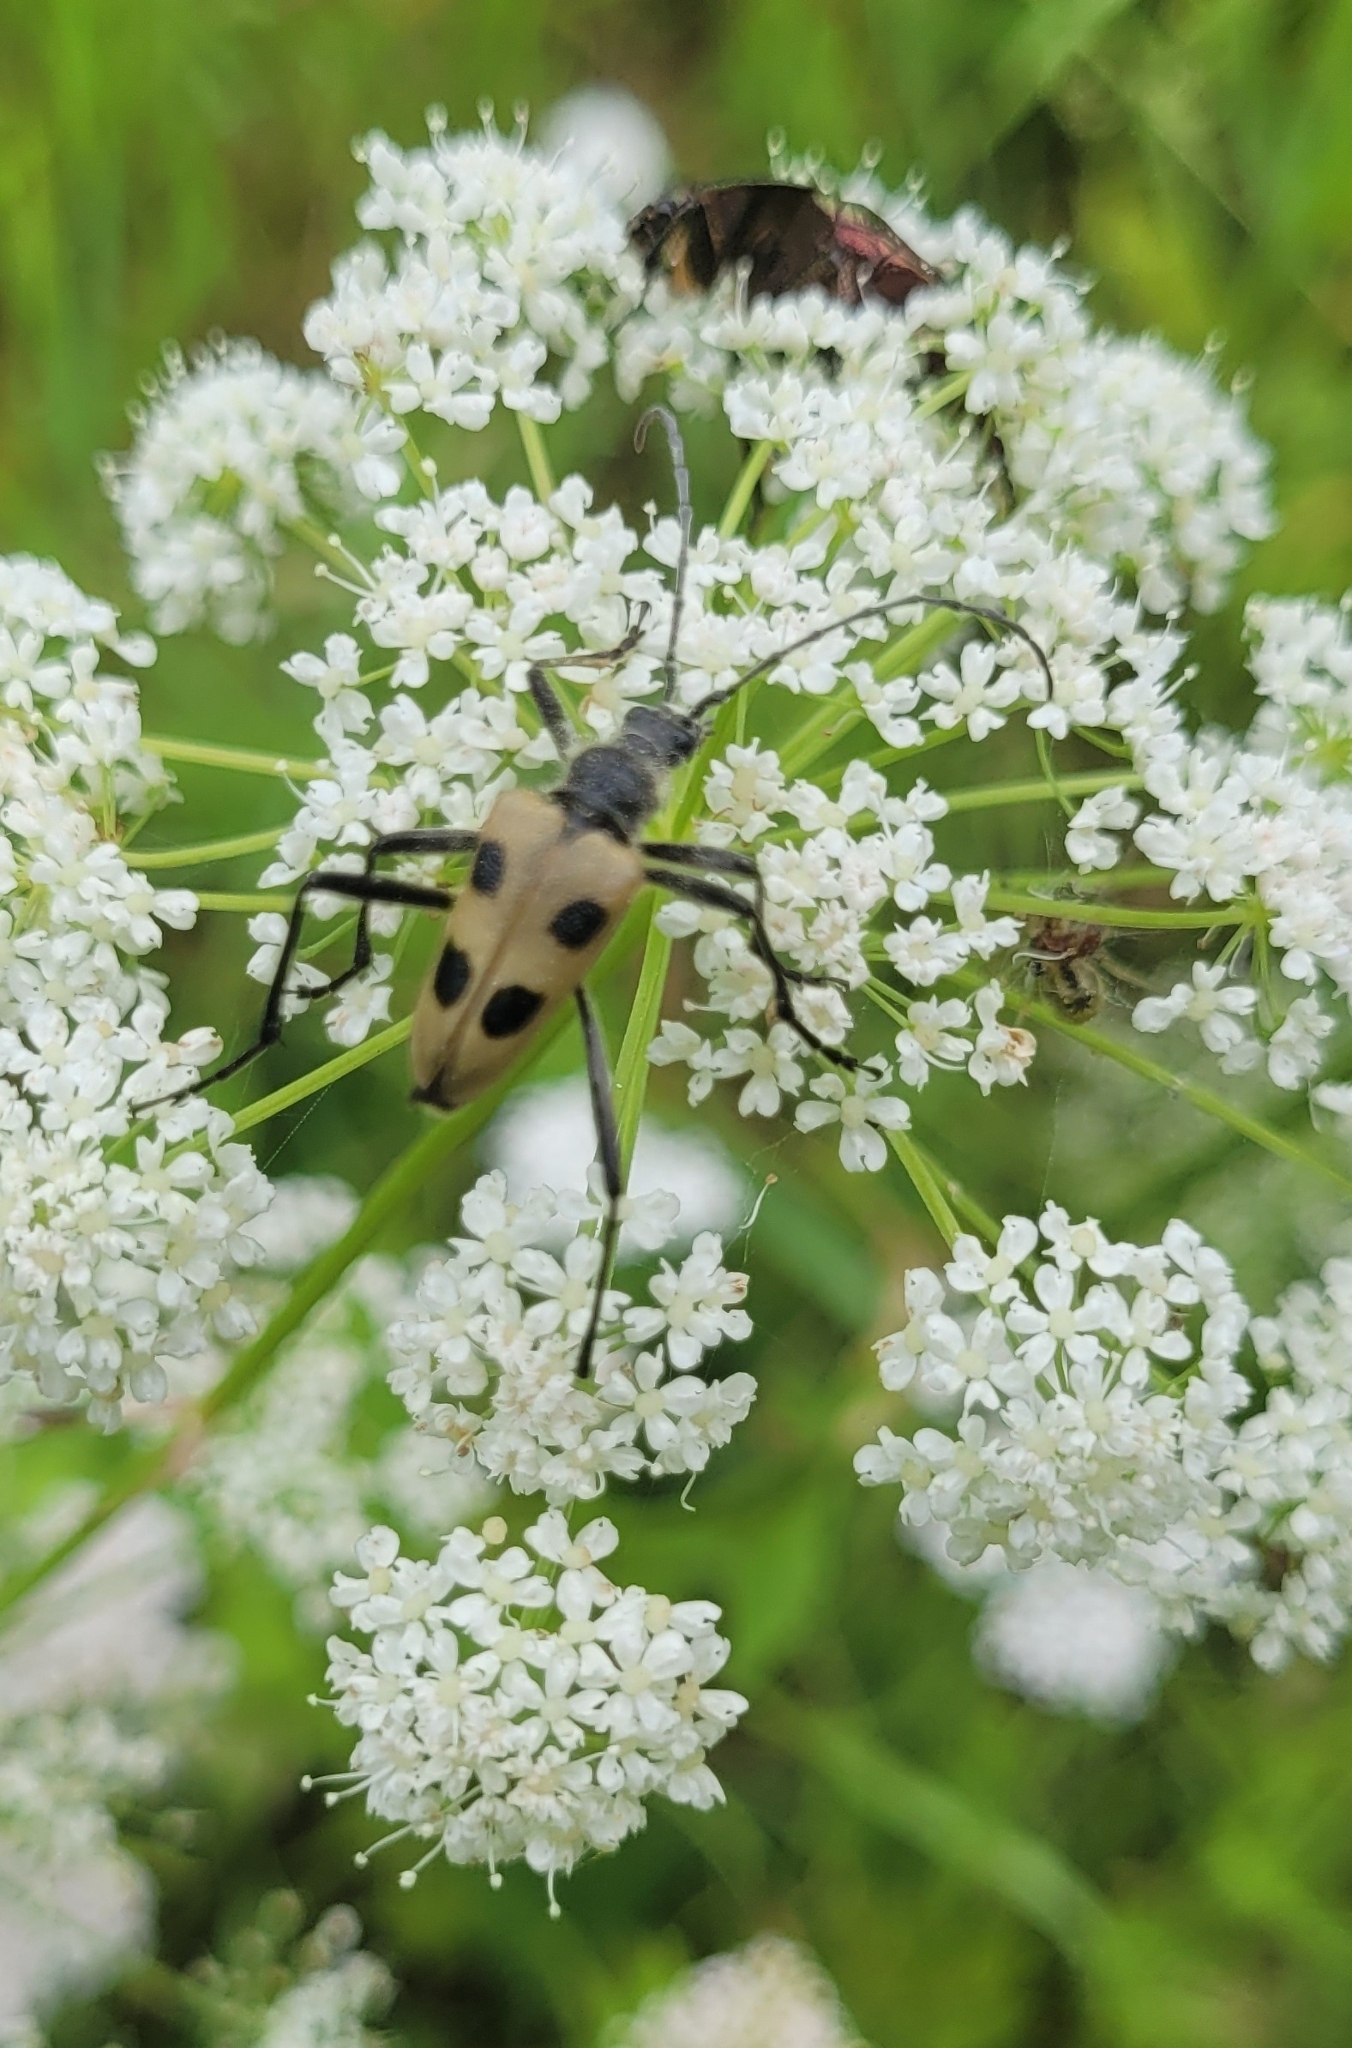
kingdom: Animalia
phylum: Arthropoda
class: Insecta
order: Coleoptera
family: Cerambycidae
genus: Pachyta
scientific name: Pachyta quadrimaculata
